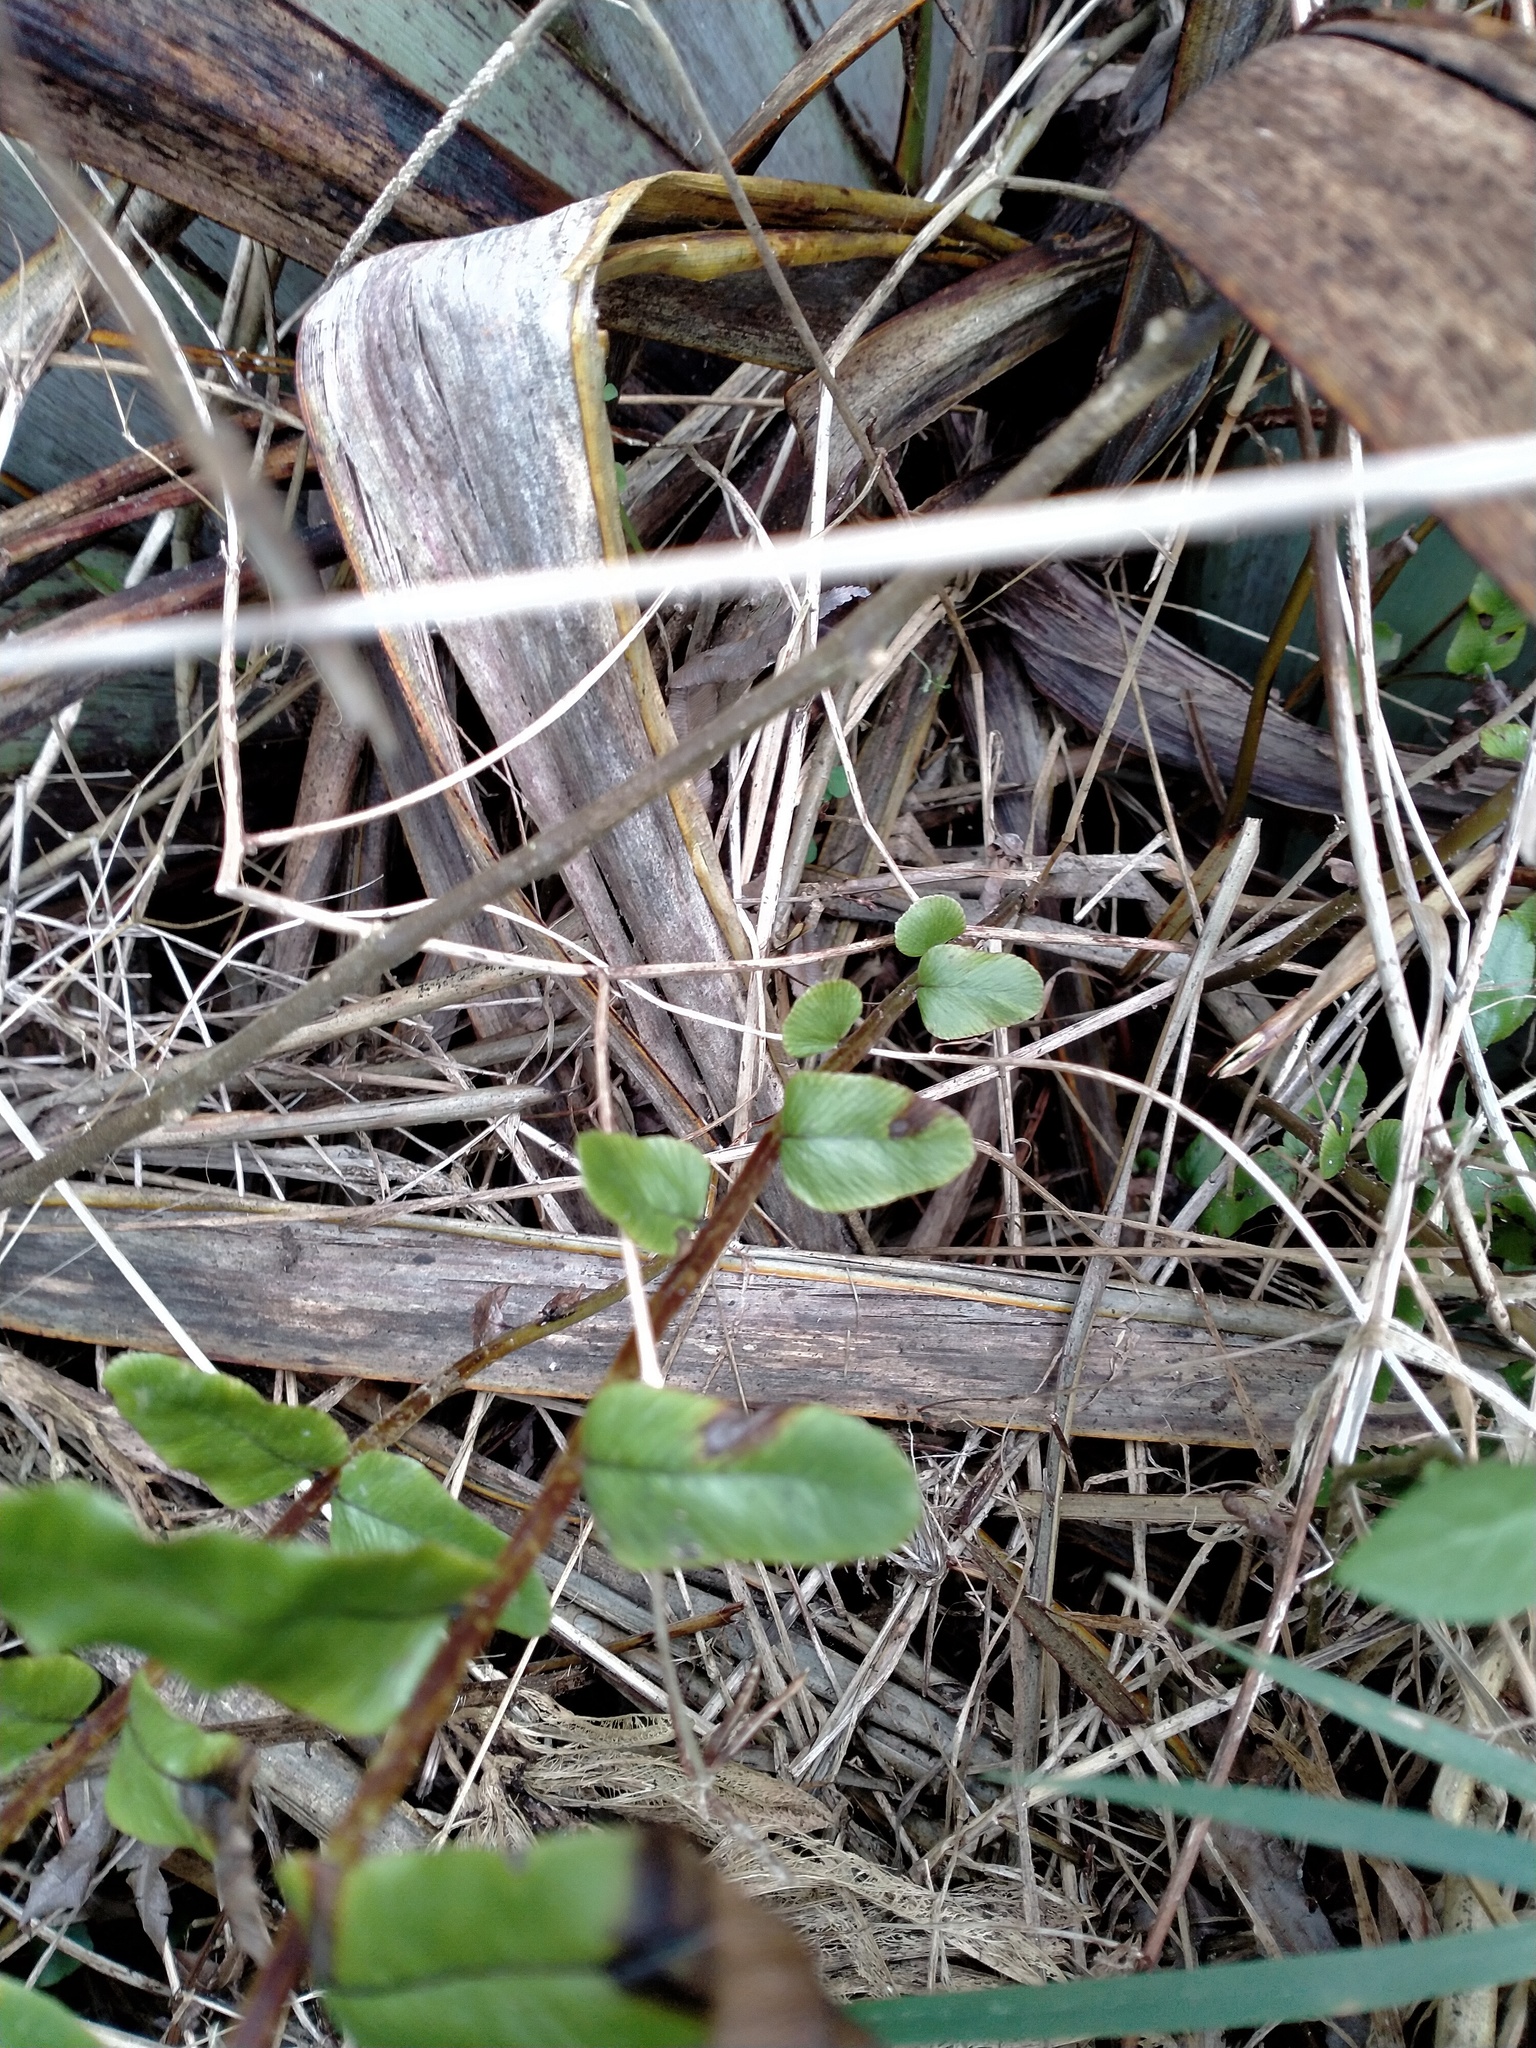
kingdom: Plantae
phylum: Tracheophyta
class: Polypodiopsida
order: Polypodiales
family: Blechnaceae
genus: Parablechnum
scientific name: Parablechnum minus
